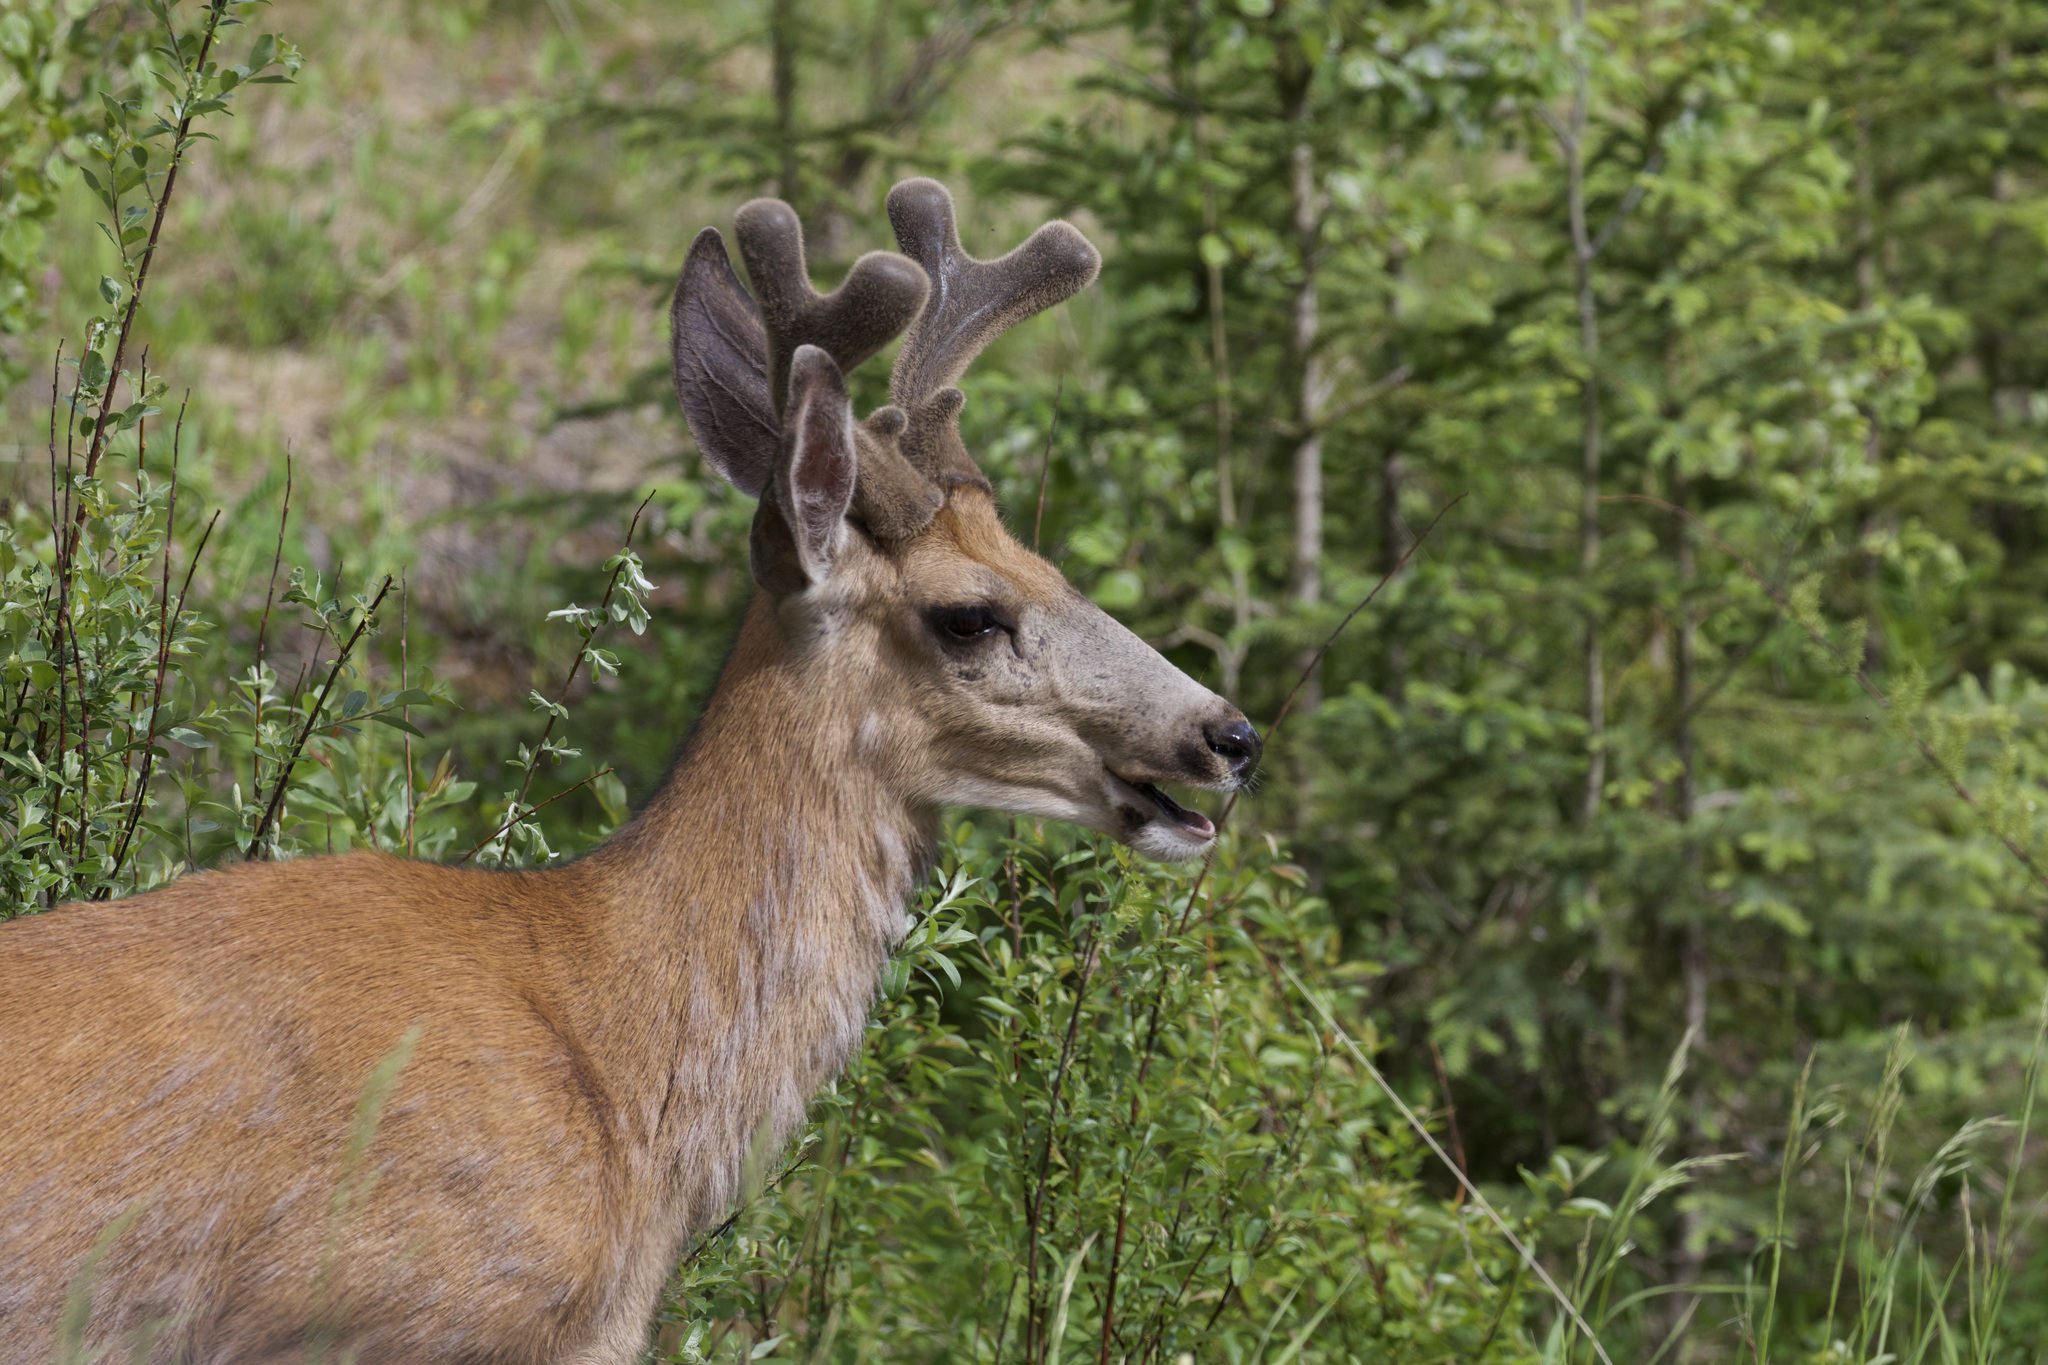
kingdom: Animalia
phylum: Chordata
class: Mammalia
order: Artiodactyla
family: Cervidae
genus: Odocoileus
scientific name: Odocoileus hemionus
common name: Mule deer
